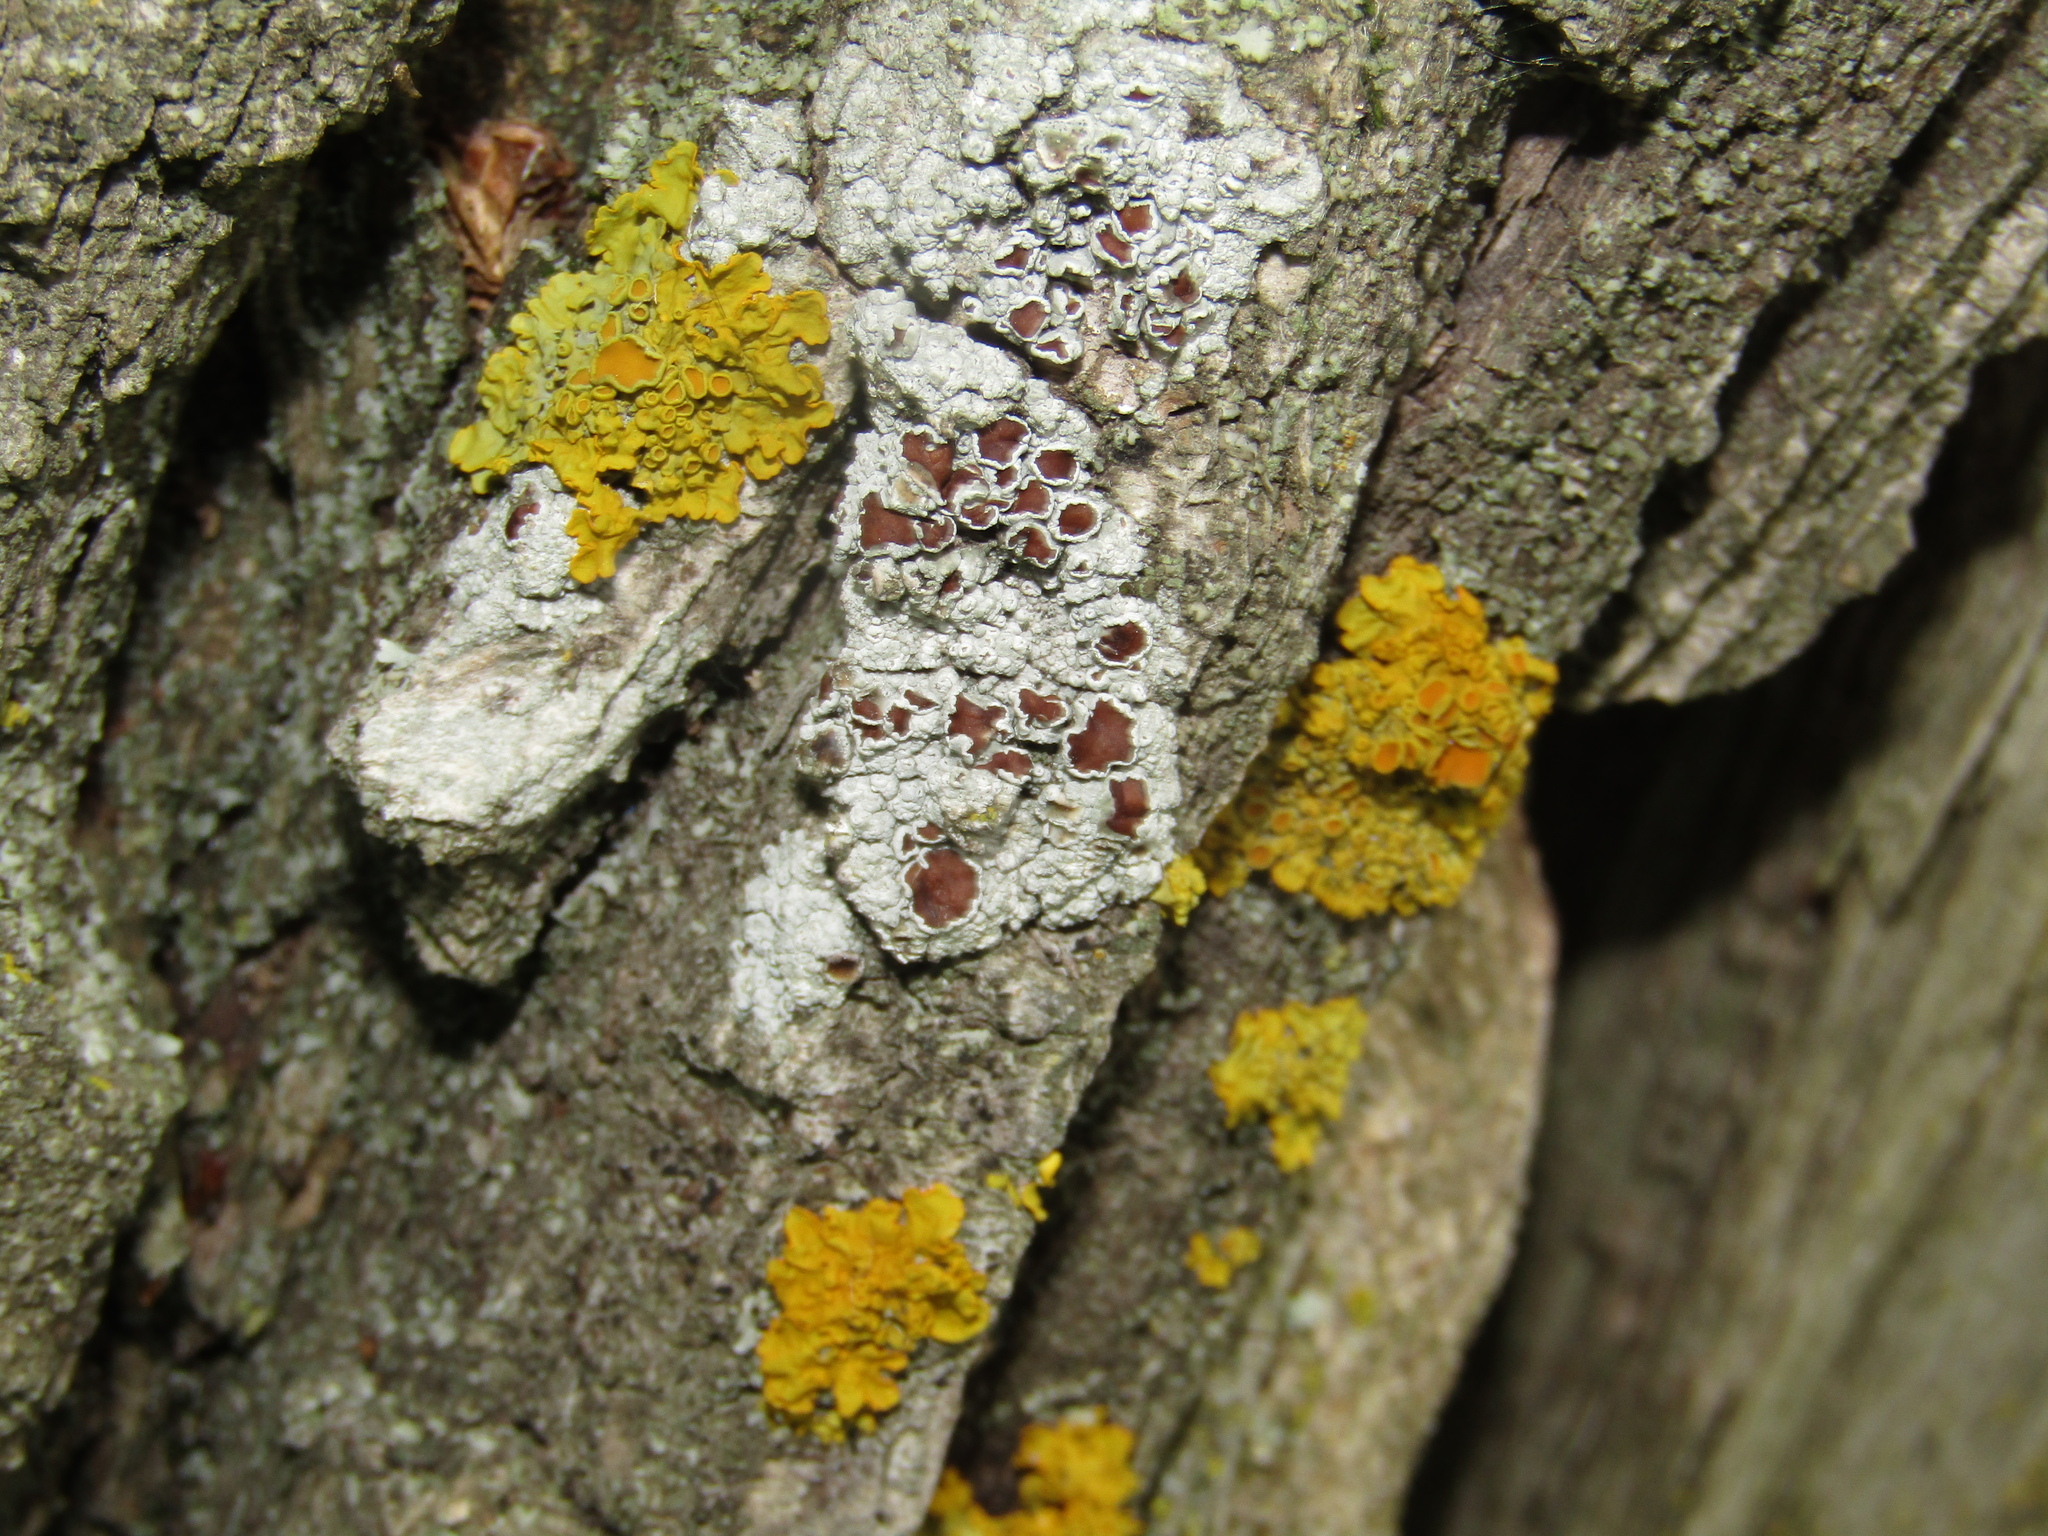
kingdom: Fungi
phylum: Ascomycota
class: Lecanoromycetes
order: Lecanorales
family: Lecanoraceae
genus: Lecanora
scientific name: Lecanora albella
